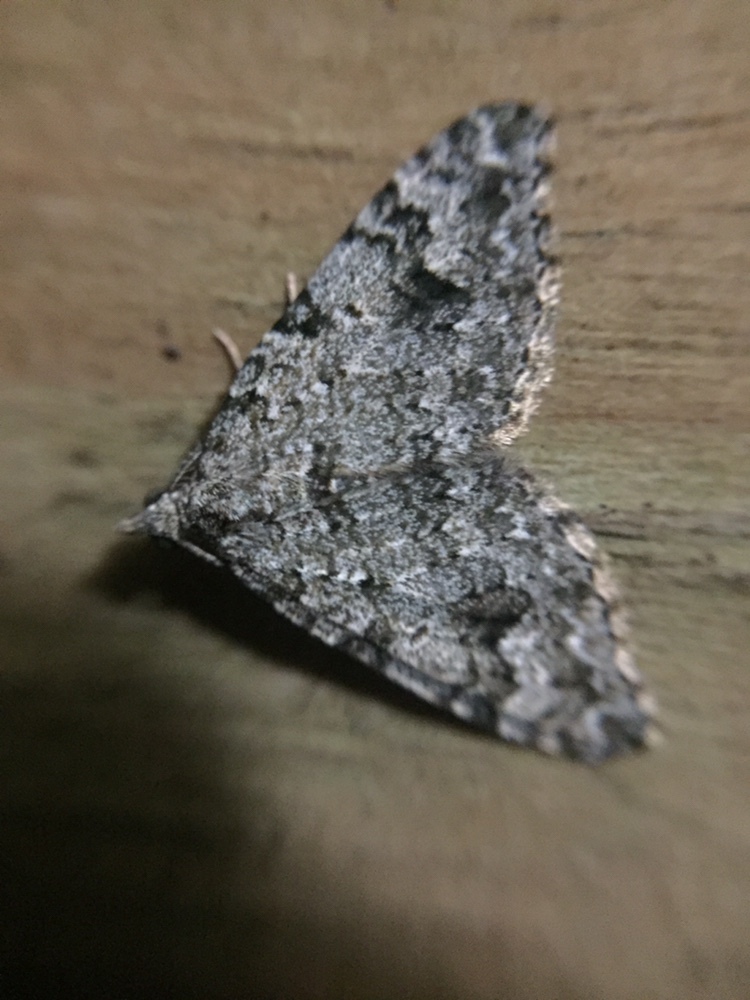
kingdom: Animalia
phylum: Arthropoda
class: Insecta
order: Lepidoptera
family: Geometridae
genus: Helastia
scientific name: Helastia cinerearia
